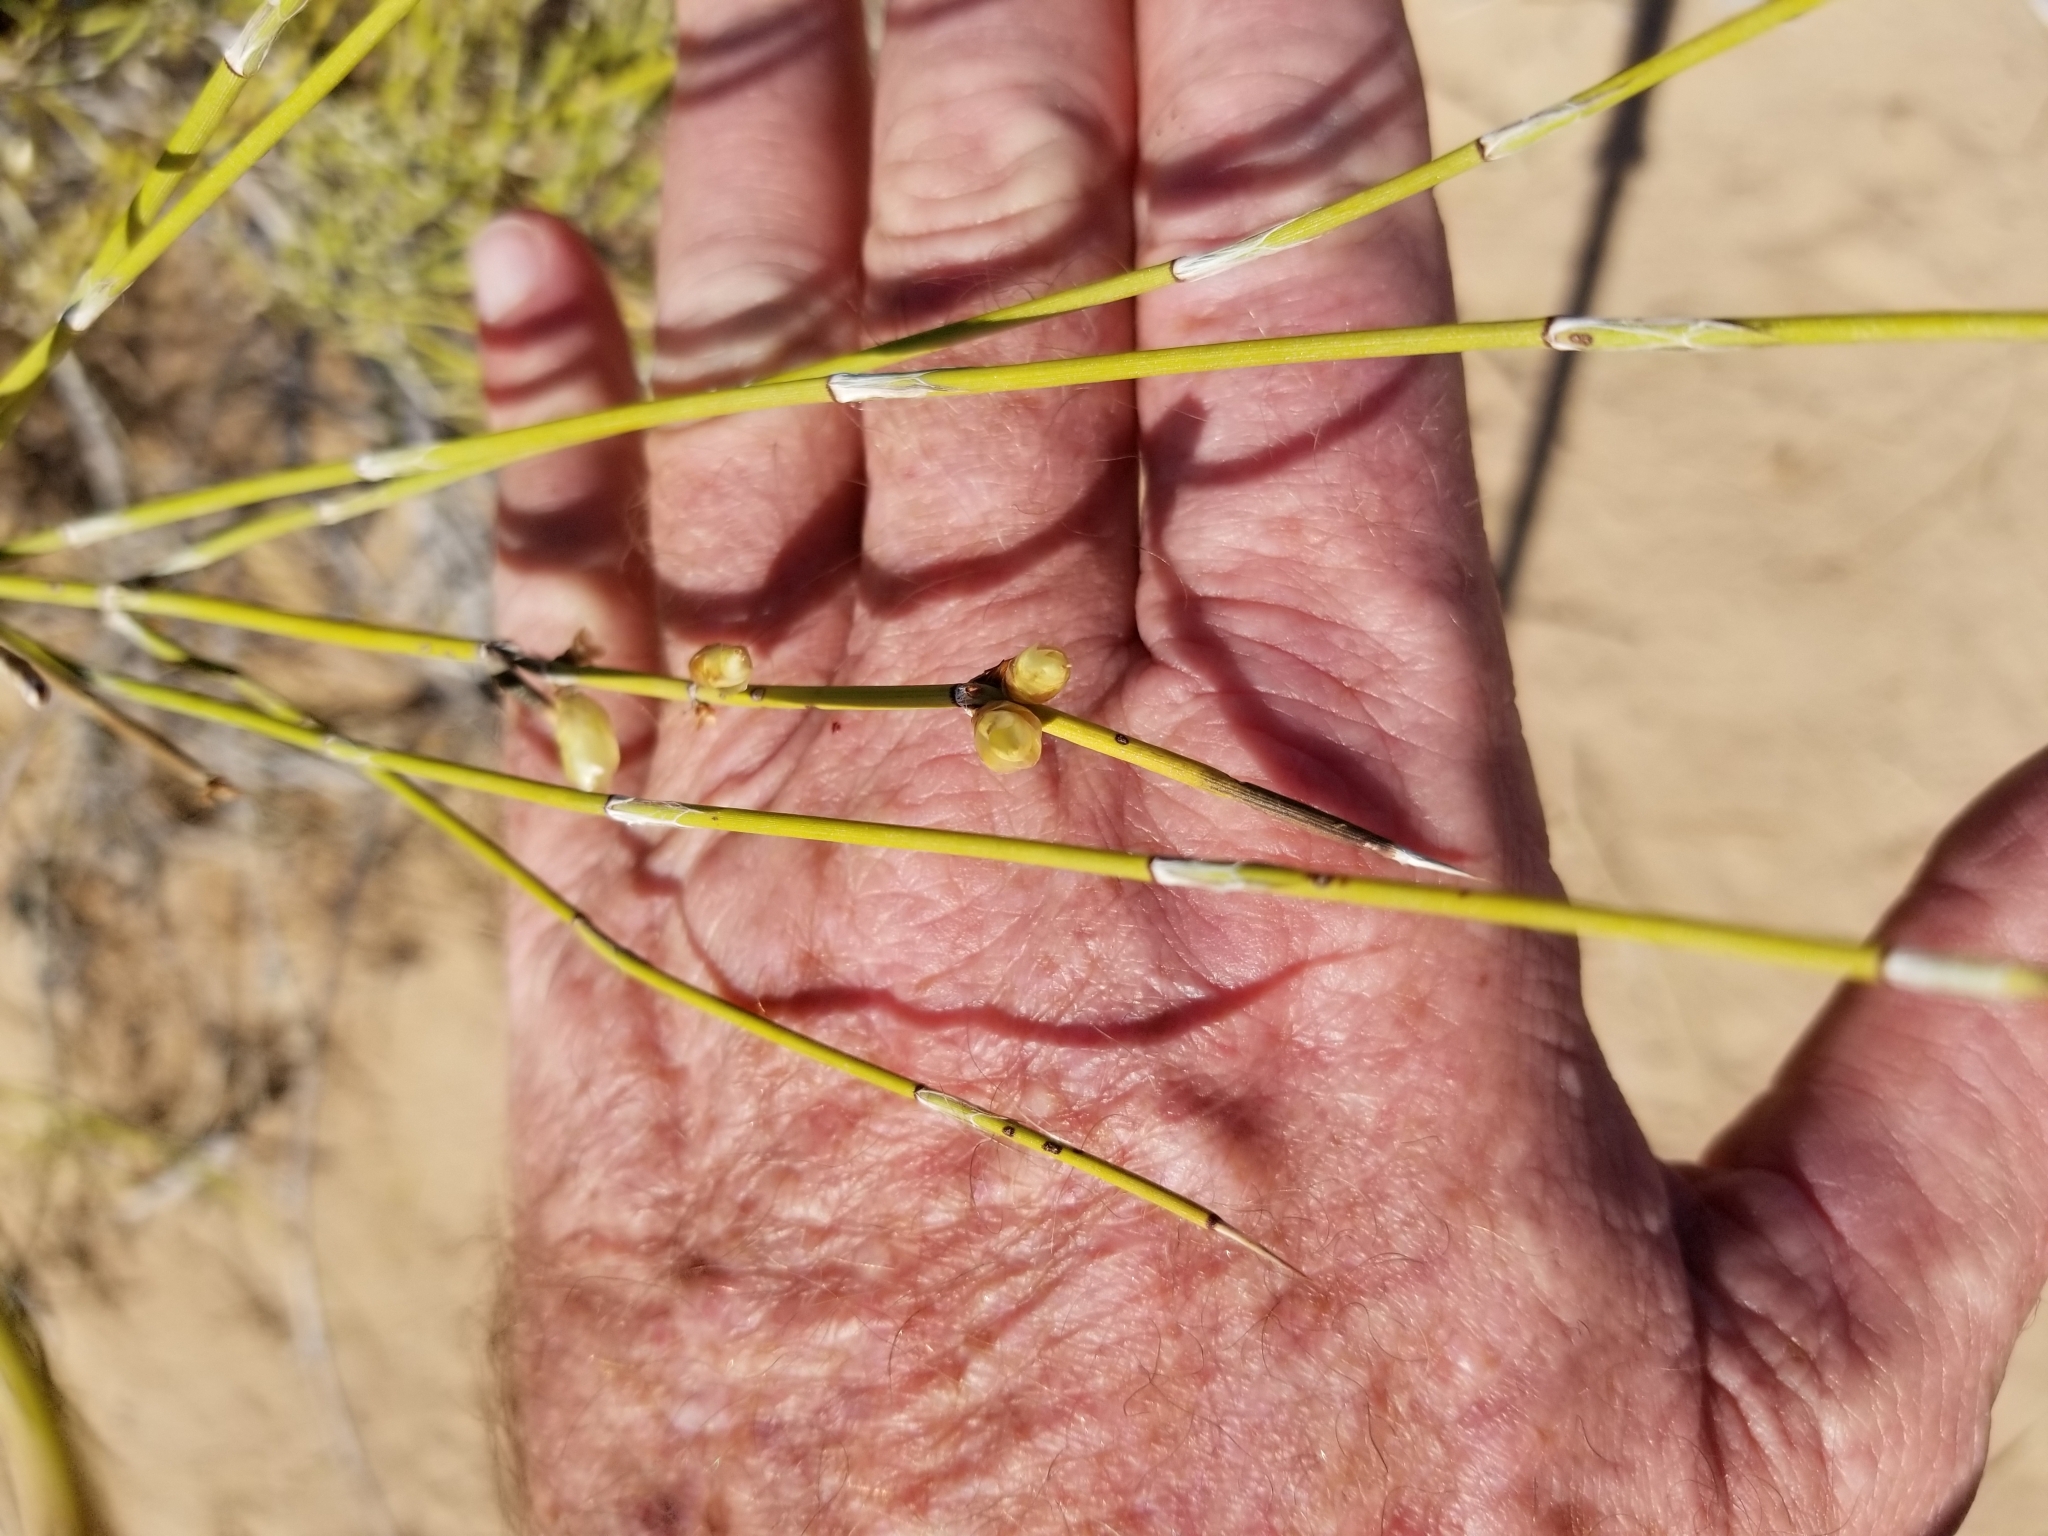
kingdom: Plantae
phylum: Tracheophyta
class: Gnetopsida
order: Ephedrales
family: Ephedraceae
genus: Ephedra
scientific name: Ephedra trifurca
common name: Mexican-tea
